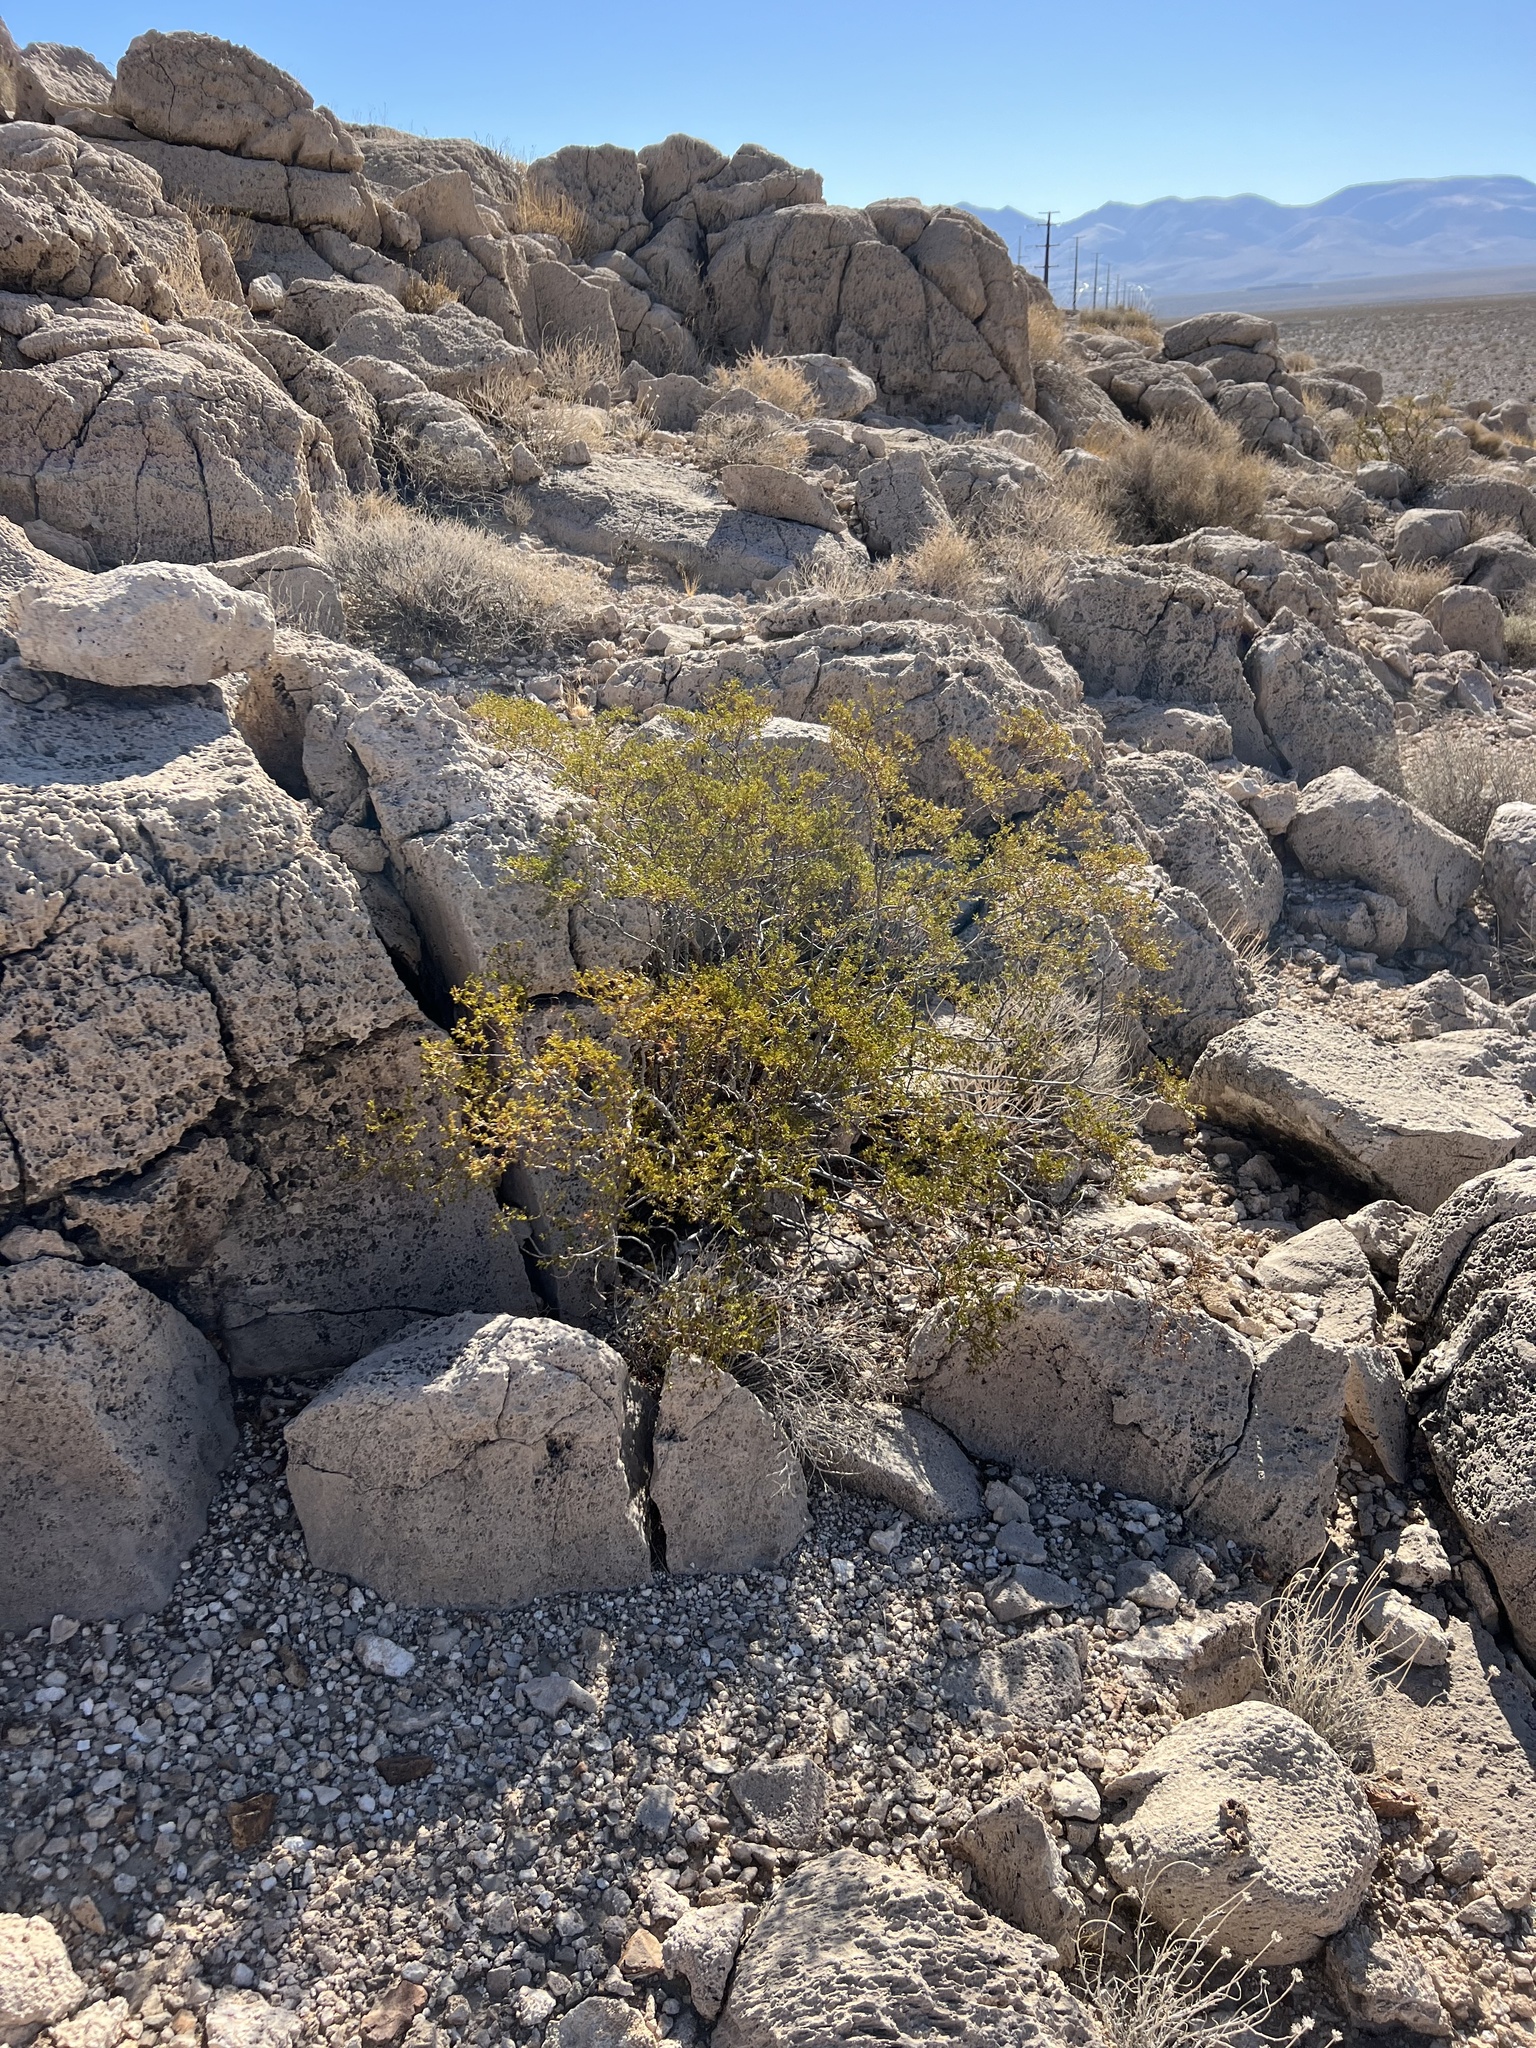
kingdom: Plantae
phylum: Tracheophyta
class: Magnoliopsida
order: Zygophyllales
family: Zygophyllaceae
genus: Larrea
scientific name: Larrea tridentata
